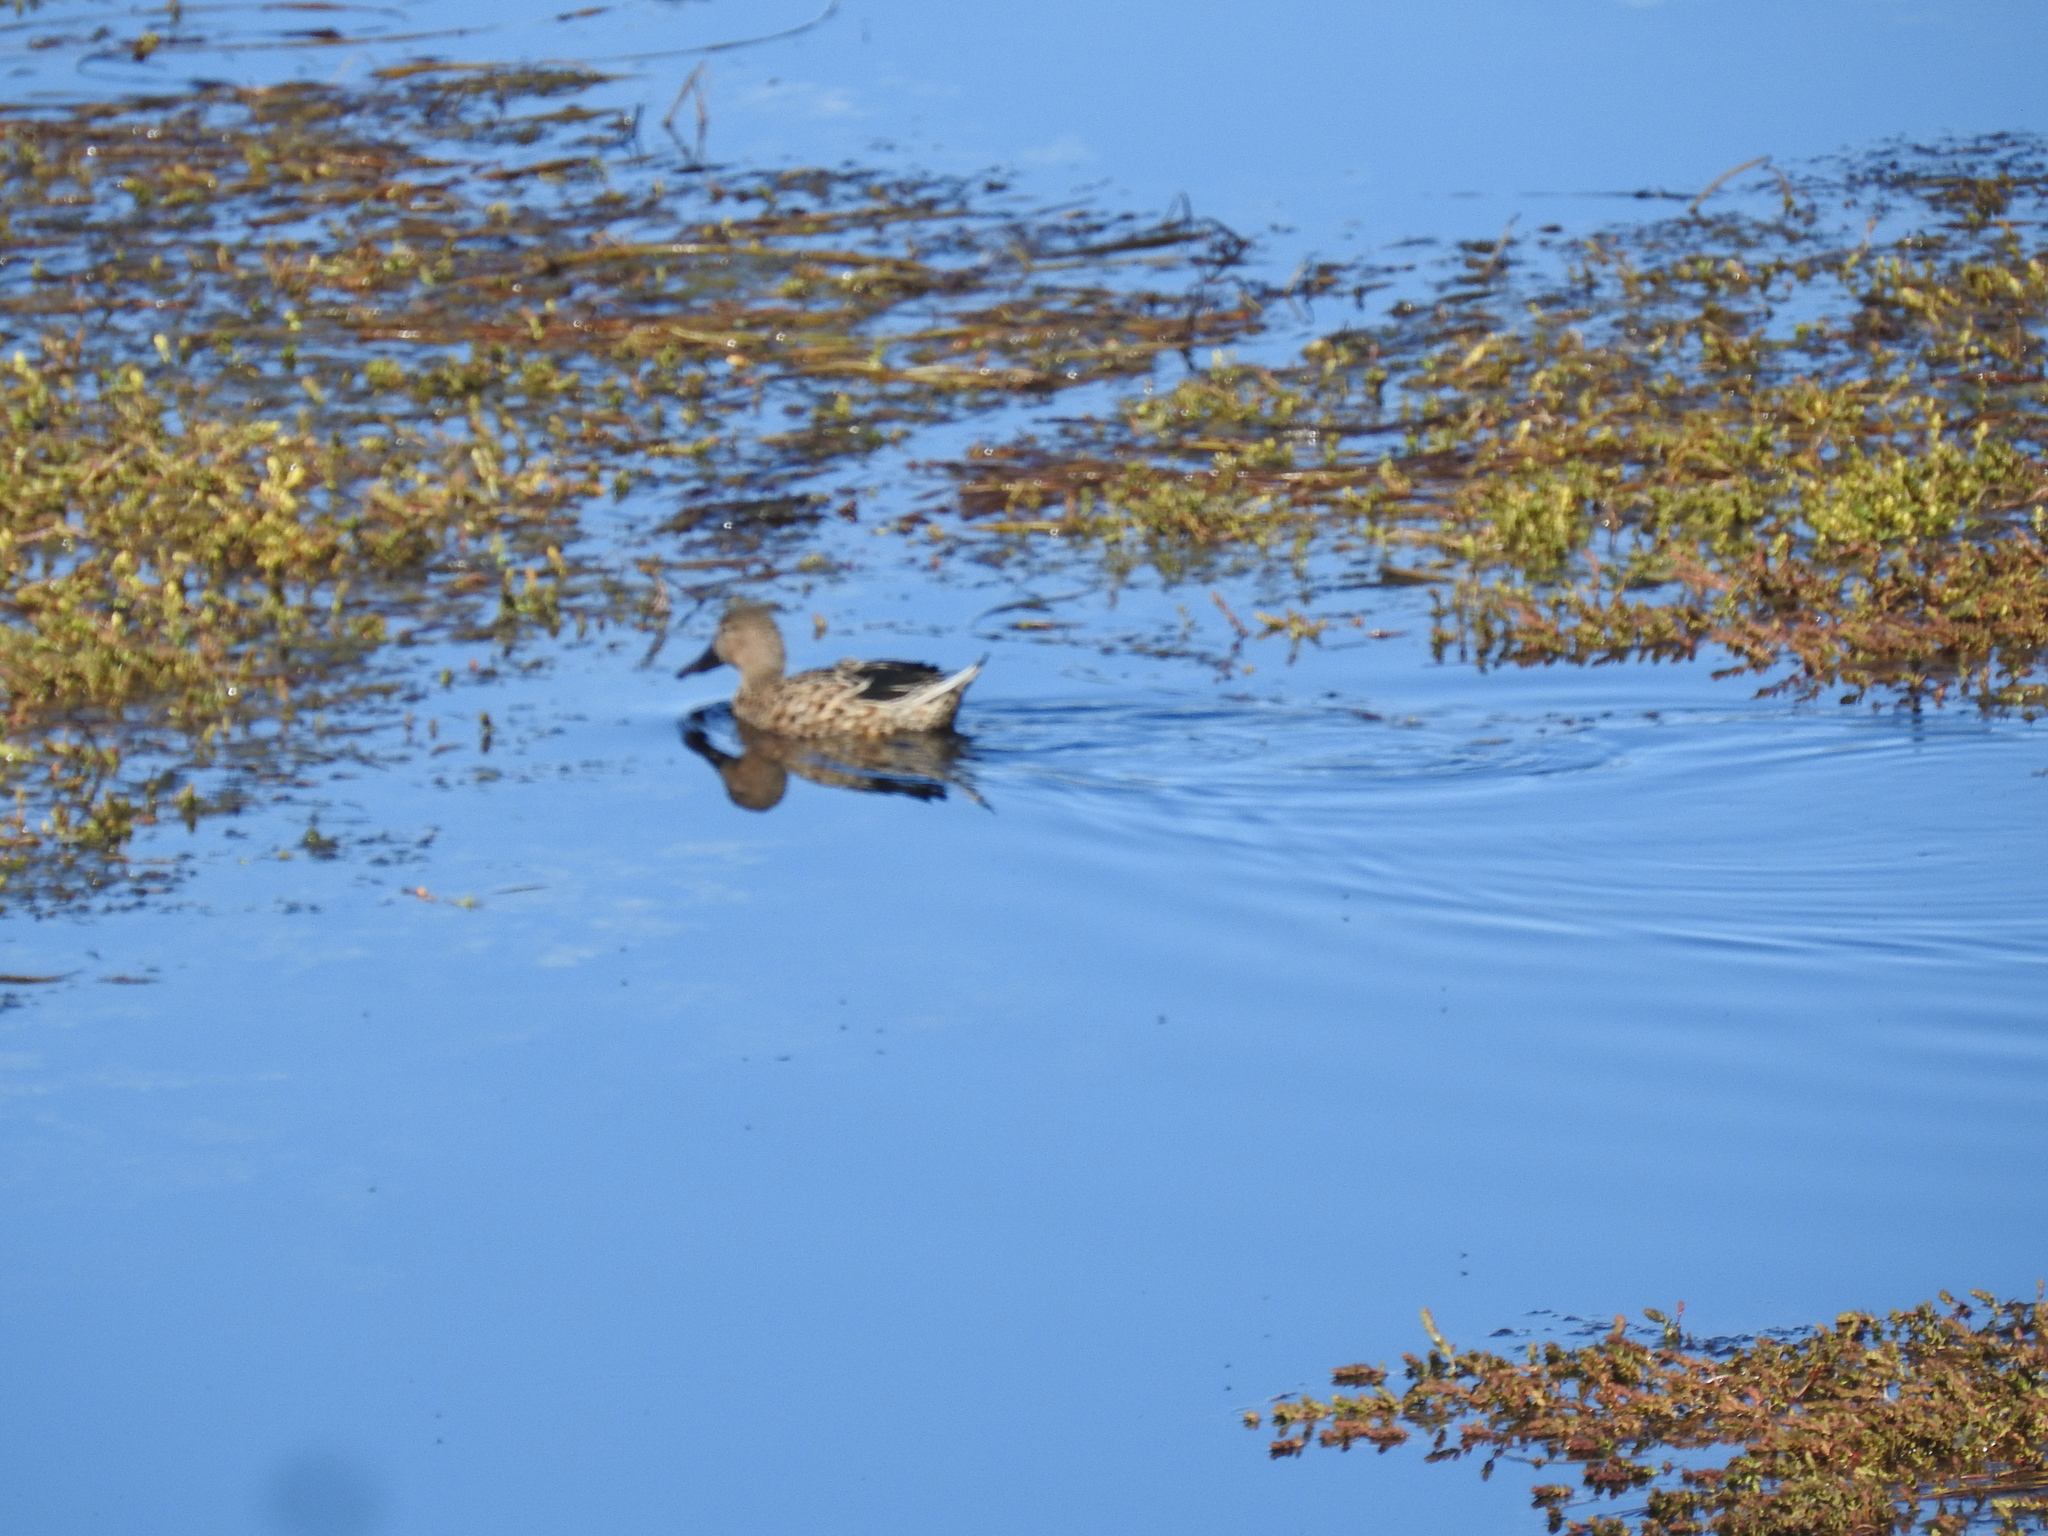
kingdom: Animalia
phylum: Chordata
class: Aves
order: Anseriformes
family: Anatidae
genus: Spatula
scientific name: Spatula platalea
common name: Red shoveler
